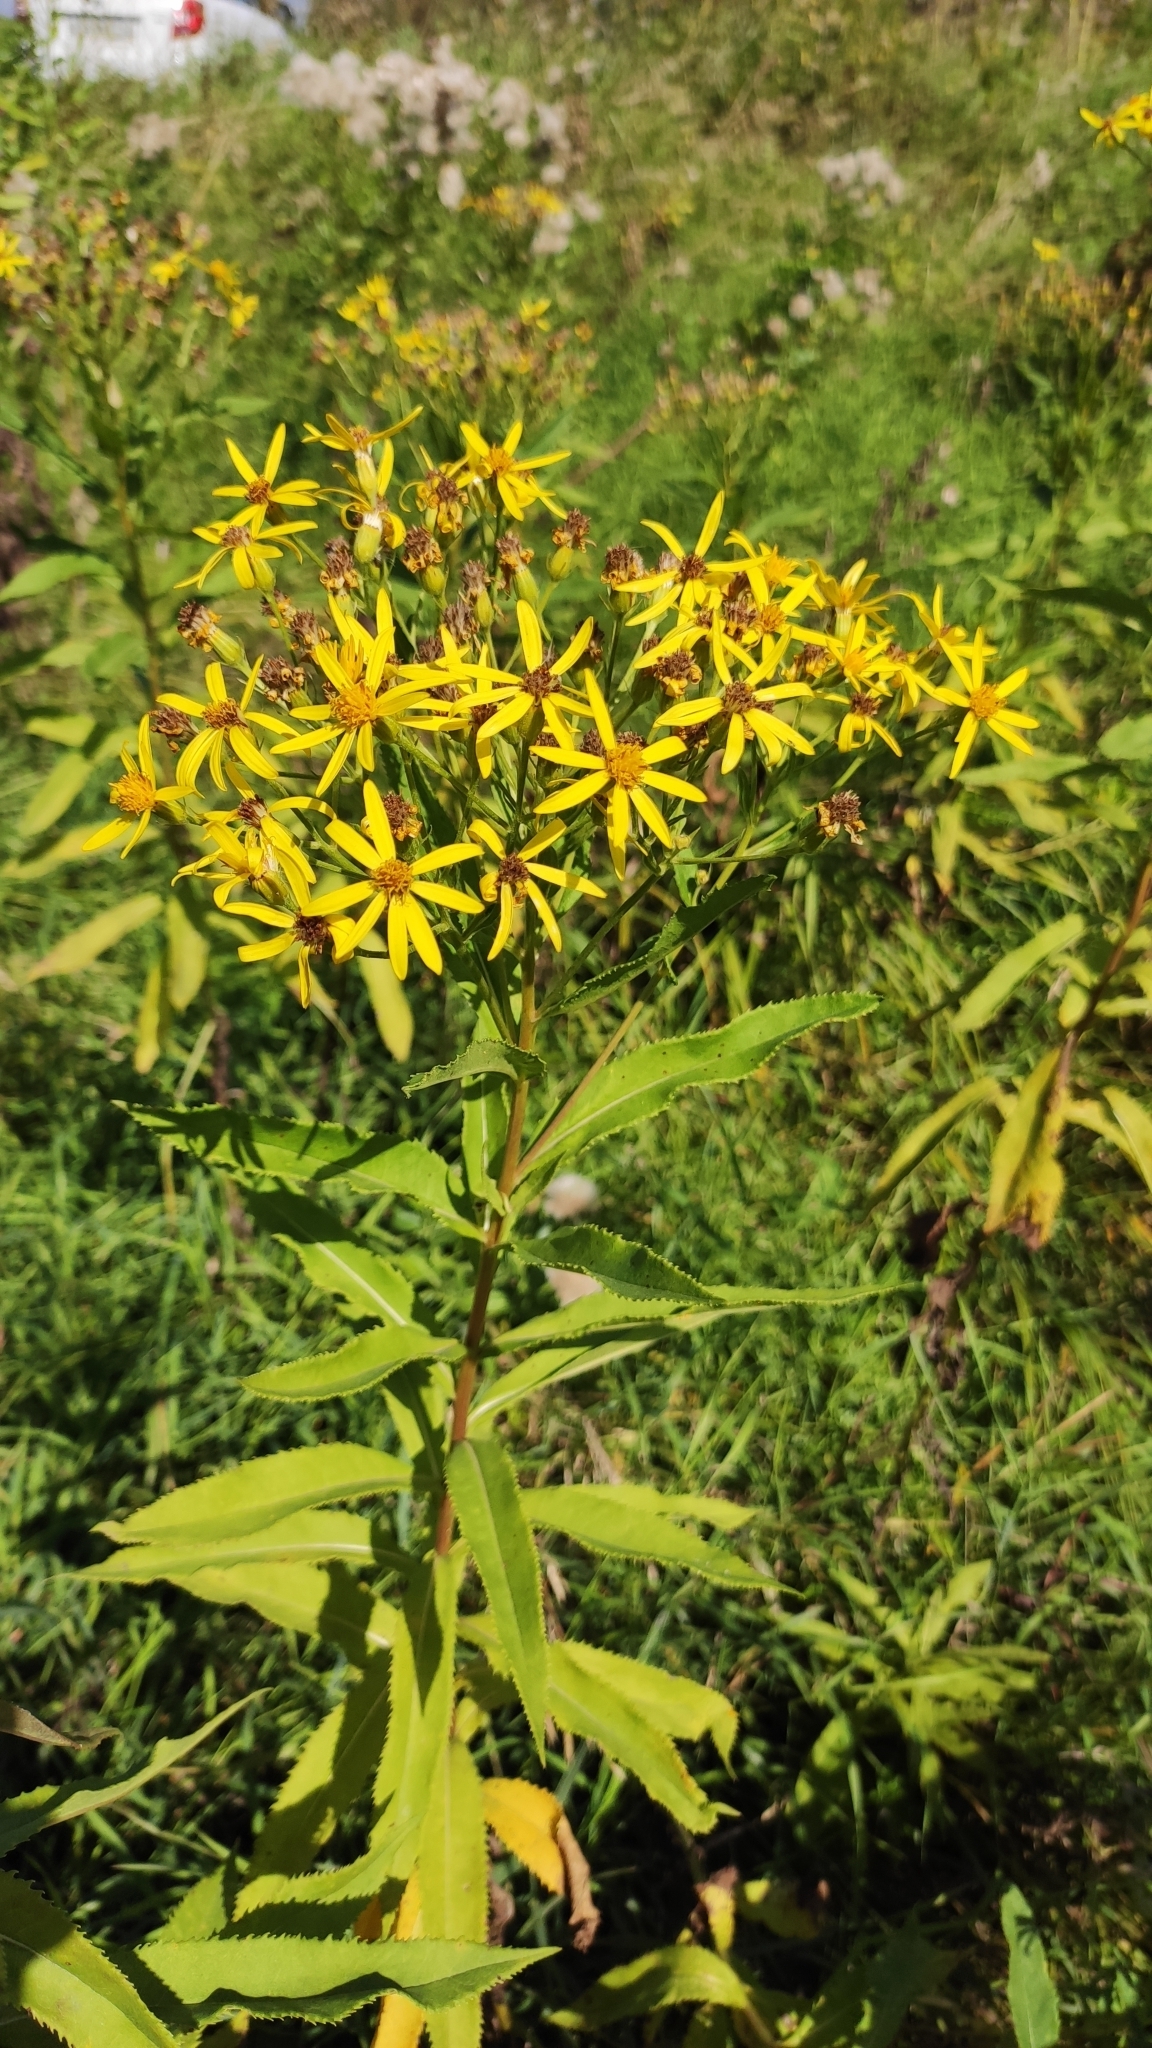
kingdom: Plantae
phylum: Tracheophyta
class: Magnoliopsida
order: Asterales
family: Asteraceae
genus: Senecio
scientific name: Senecio nemorensis
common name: Alpine ragwort
